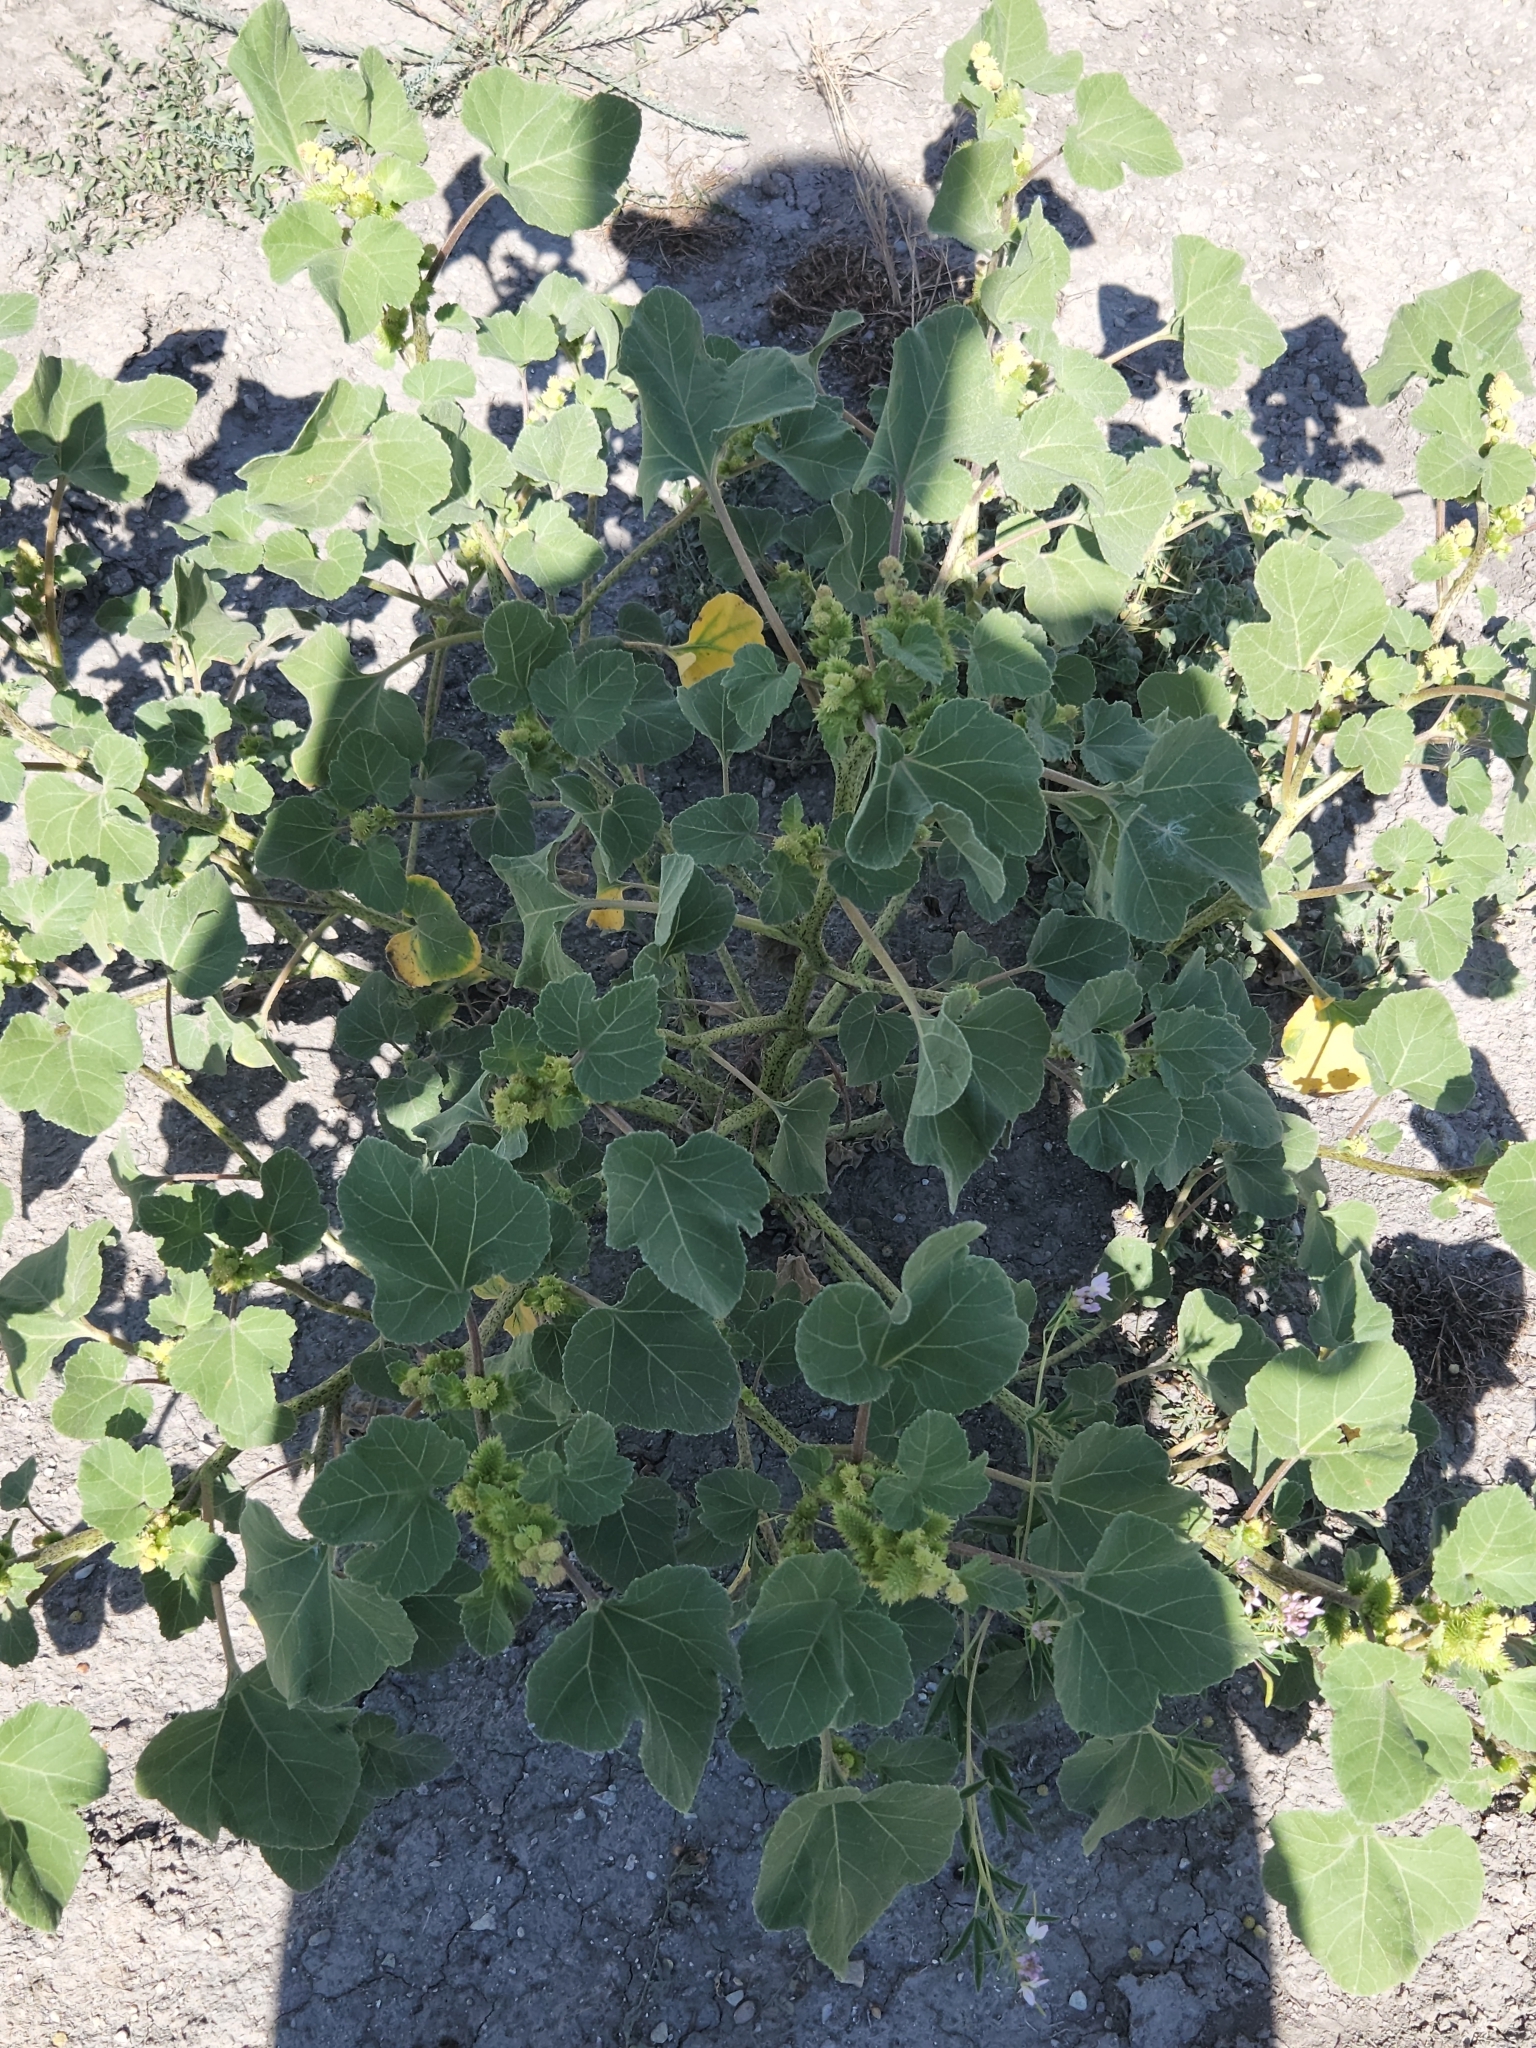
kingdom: Plantae
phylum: Tracheophyta
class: Magnoliopsida
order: Asterales
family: Asteraceae
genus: Xanthium
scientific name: Xanthium strumarium
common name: Rough cocklebur
